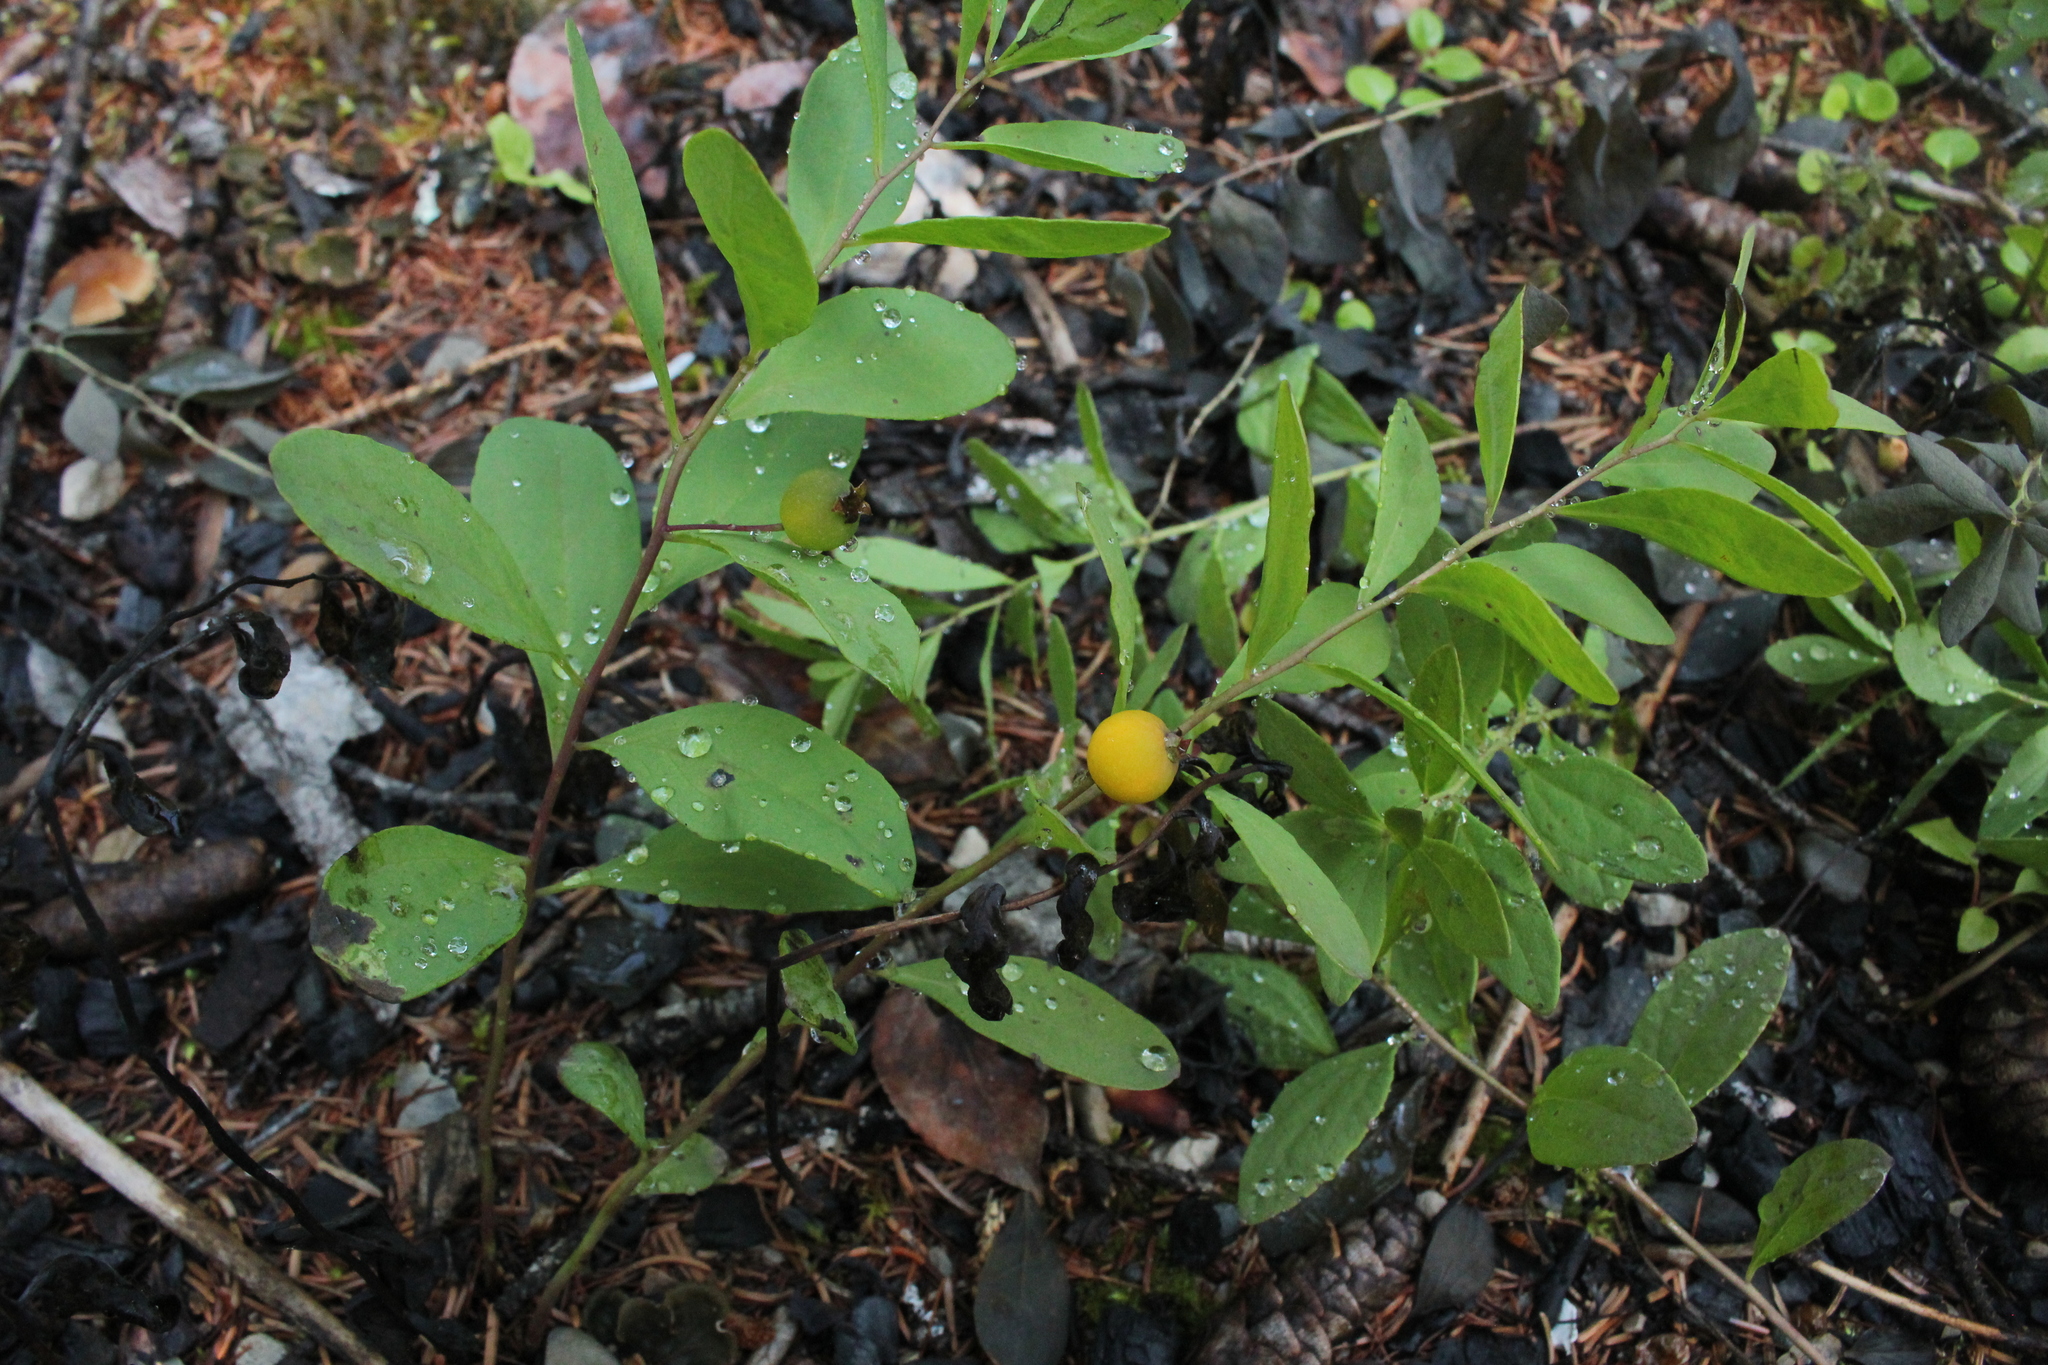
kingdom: Plantae
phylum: Tracheophyta
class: Magnoliopsida
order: Santalales
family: Comandraceae
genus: Geocaulon
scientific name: Geocaulon lividum
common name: Earthberry
